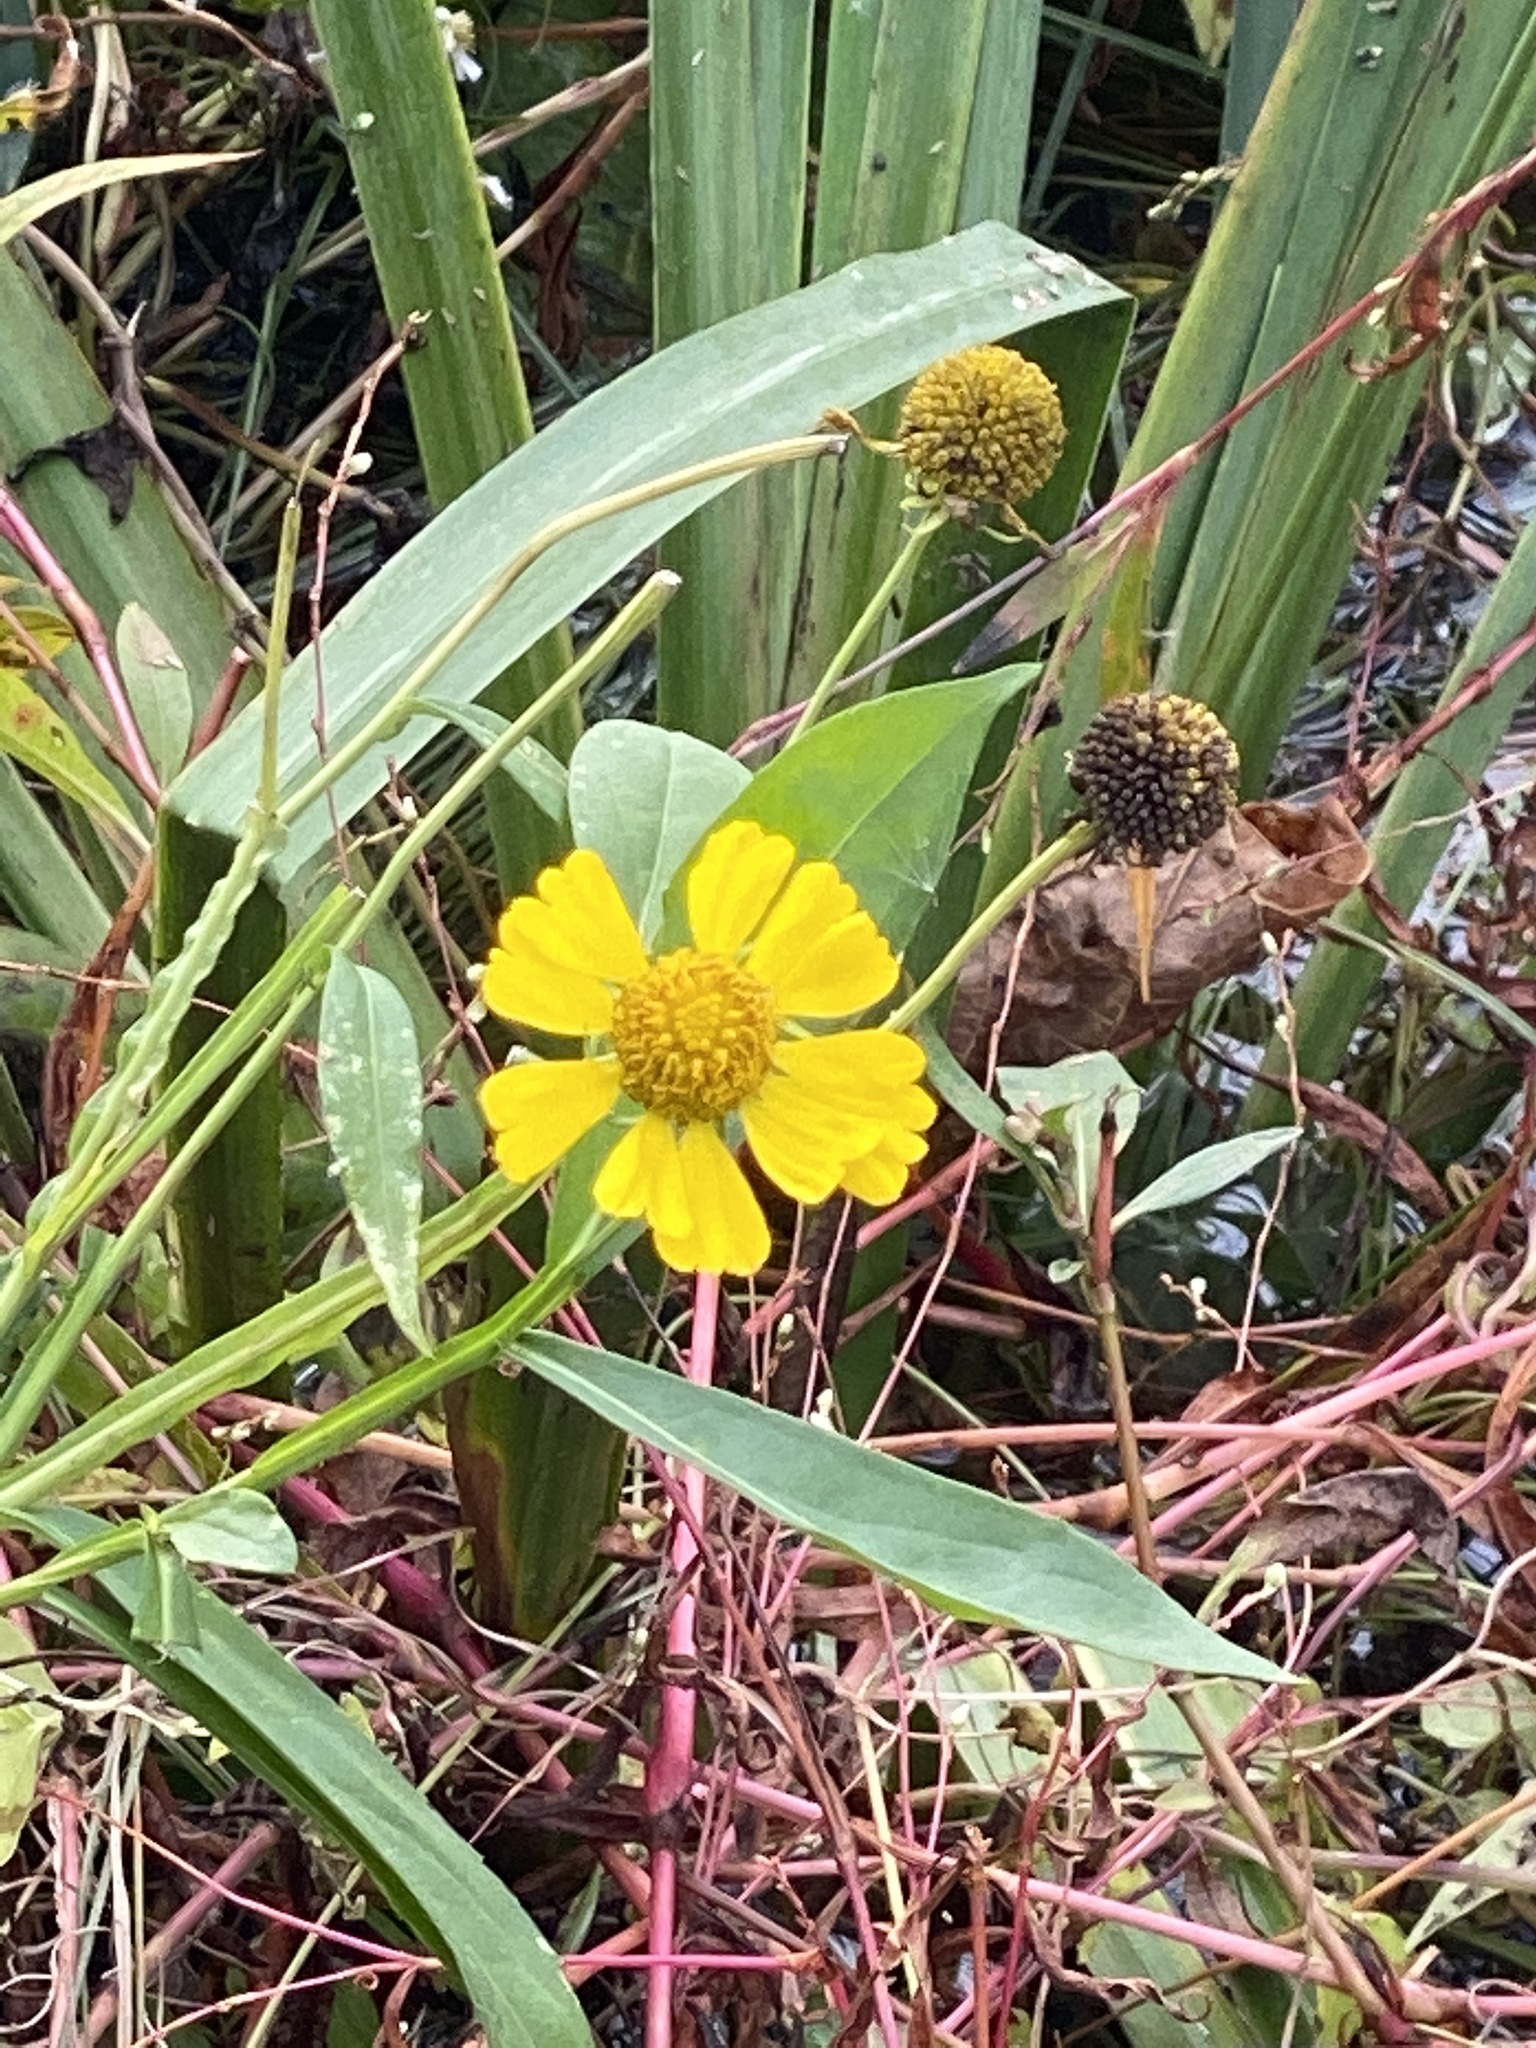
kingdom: Plantae
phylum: Tracheophyta
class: Magnoliopsida
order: Asterales
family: Asteraceae
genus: Helenium
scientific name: Helenium autumnale
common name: Sneezeweed
